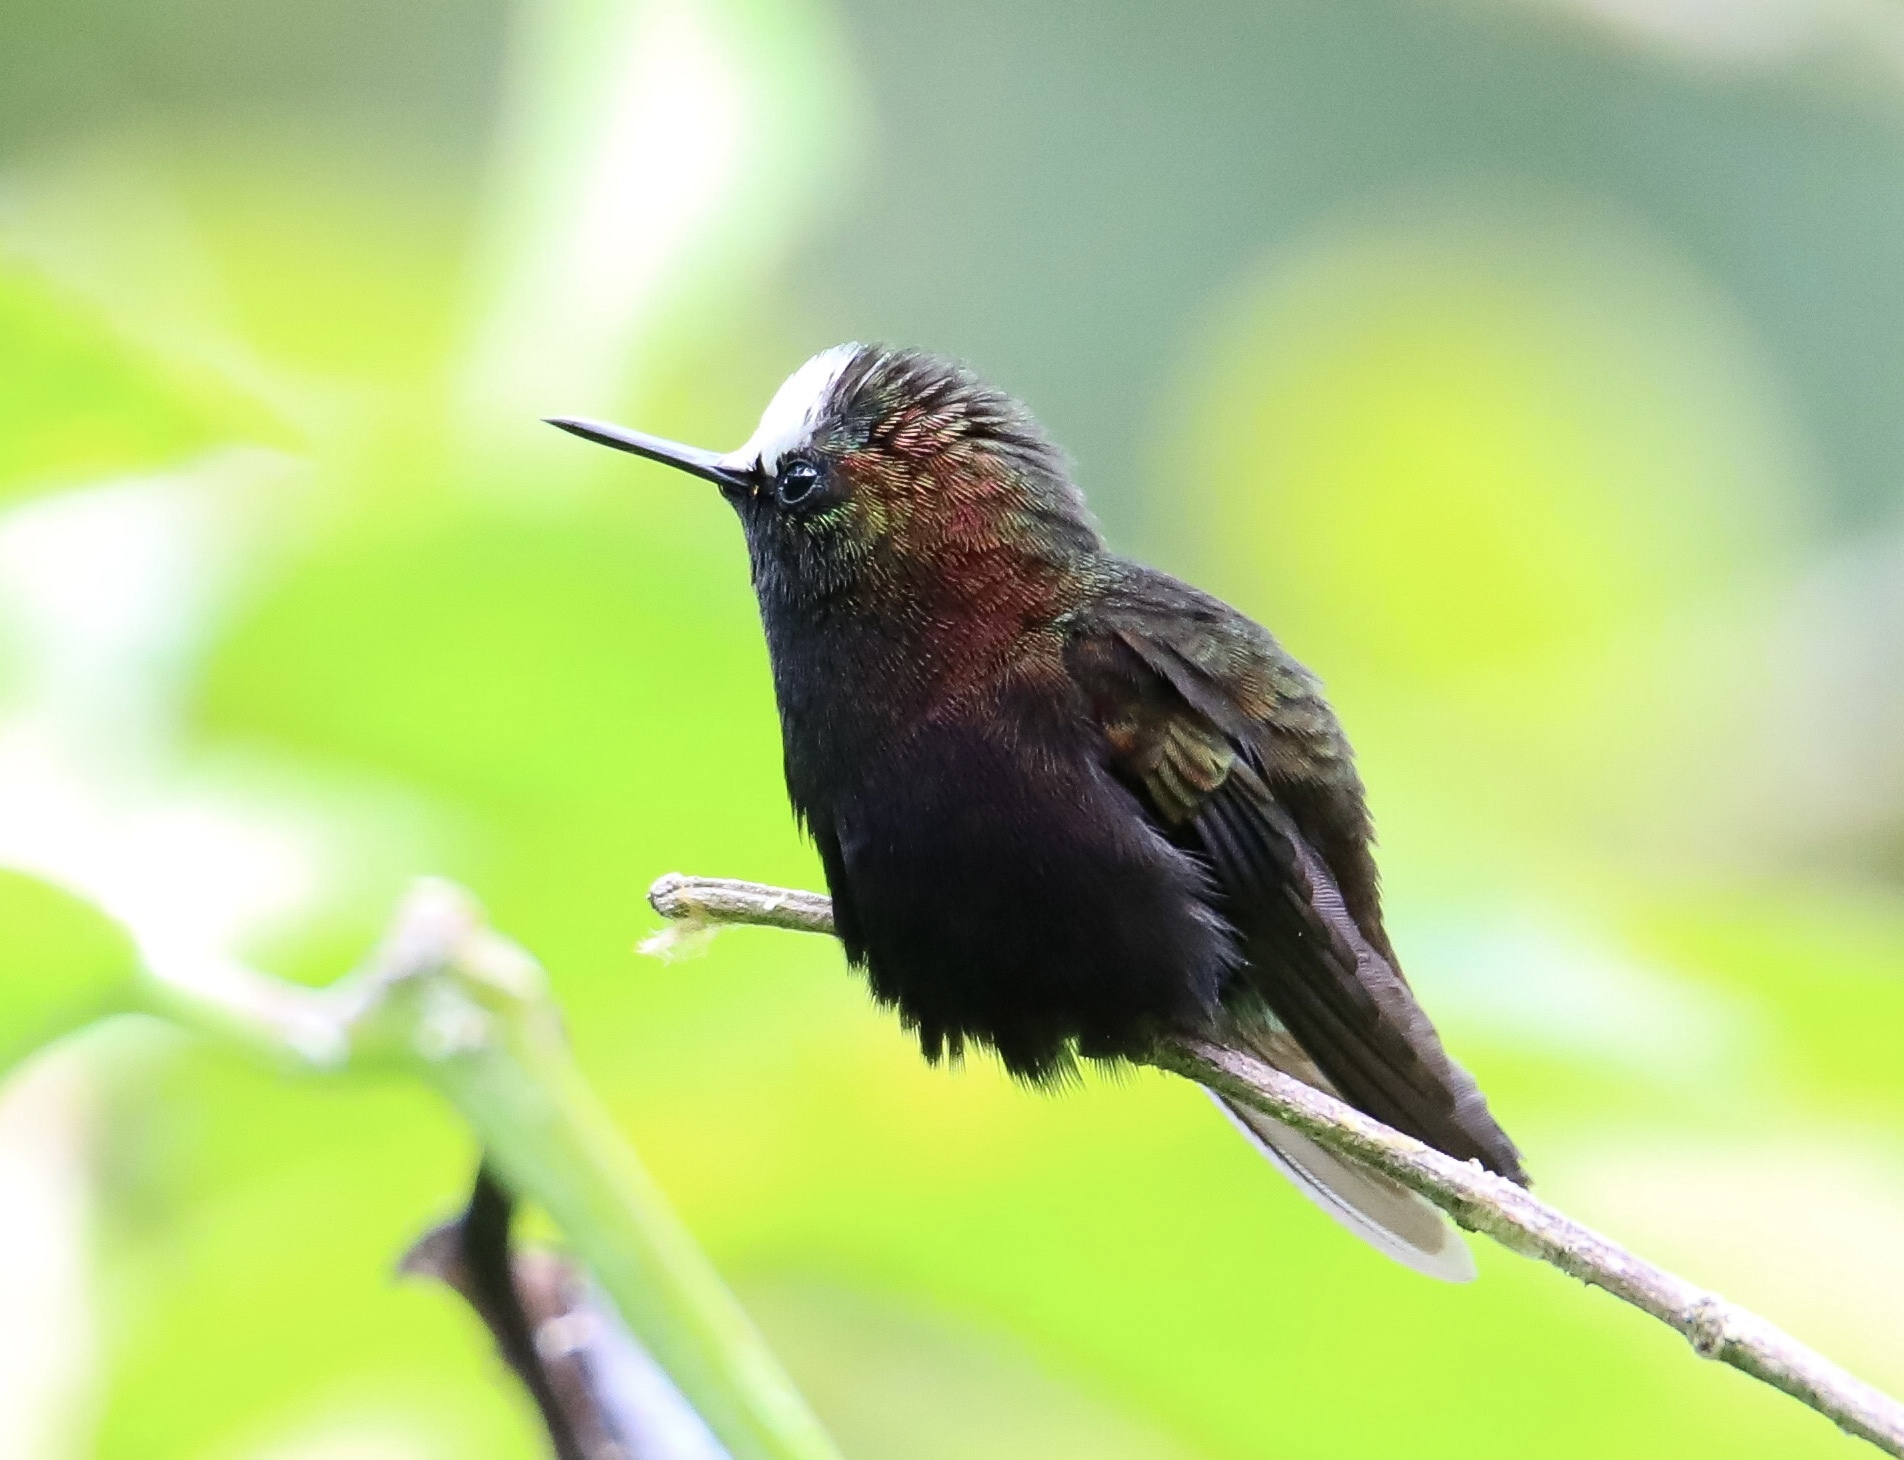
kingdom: Animalia
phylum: Chordata
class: Aves
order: Apodiformes
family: Trochilidae
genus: Microchera
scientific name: Microchera albocoronata
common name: Snowcap
